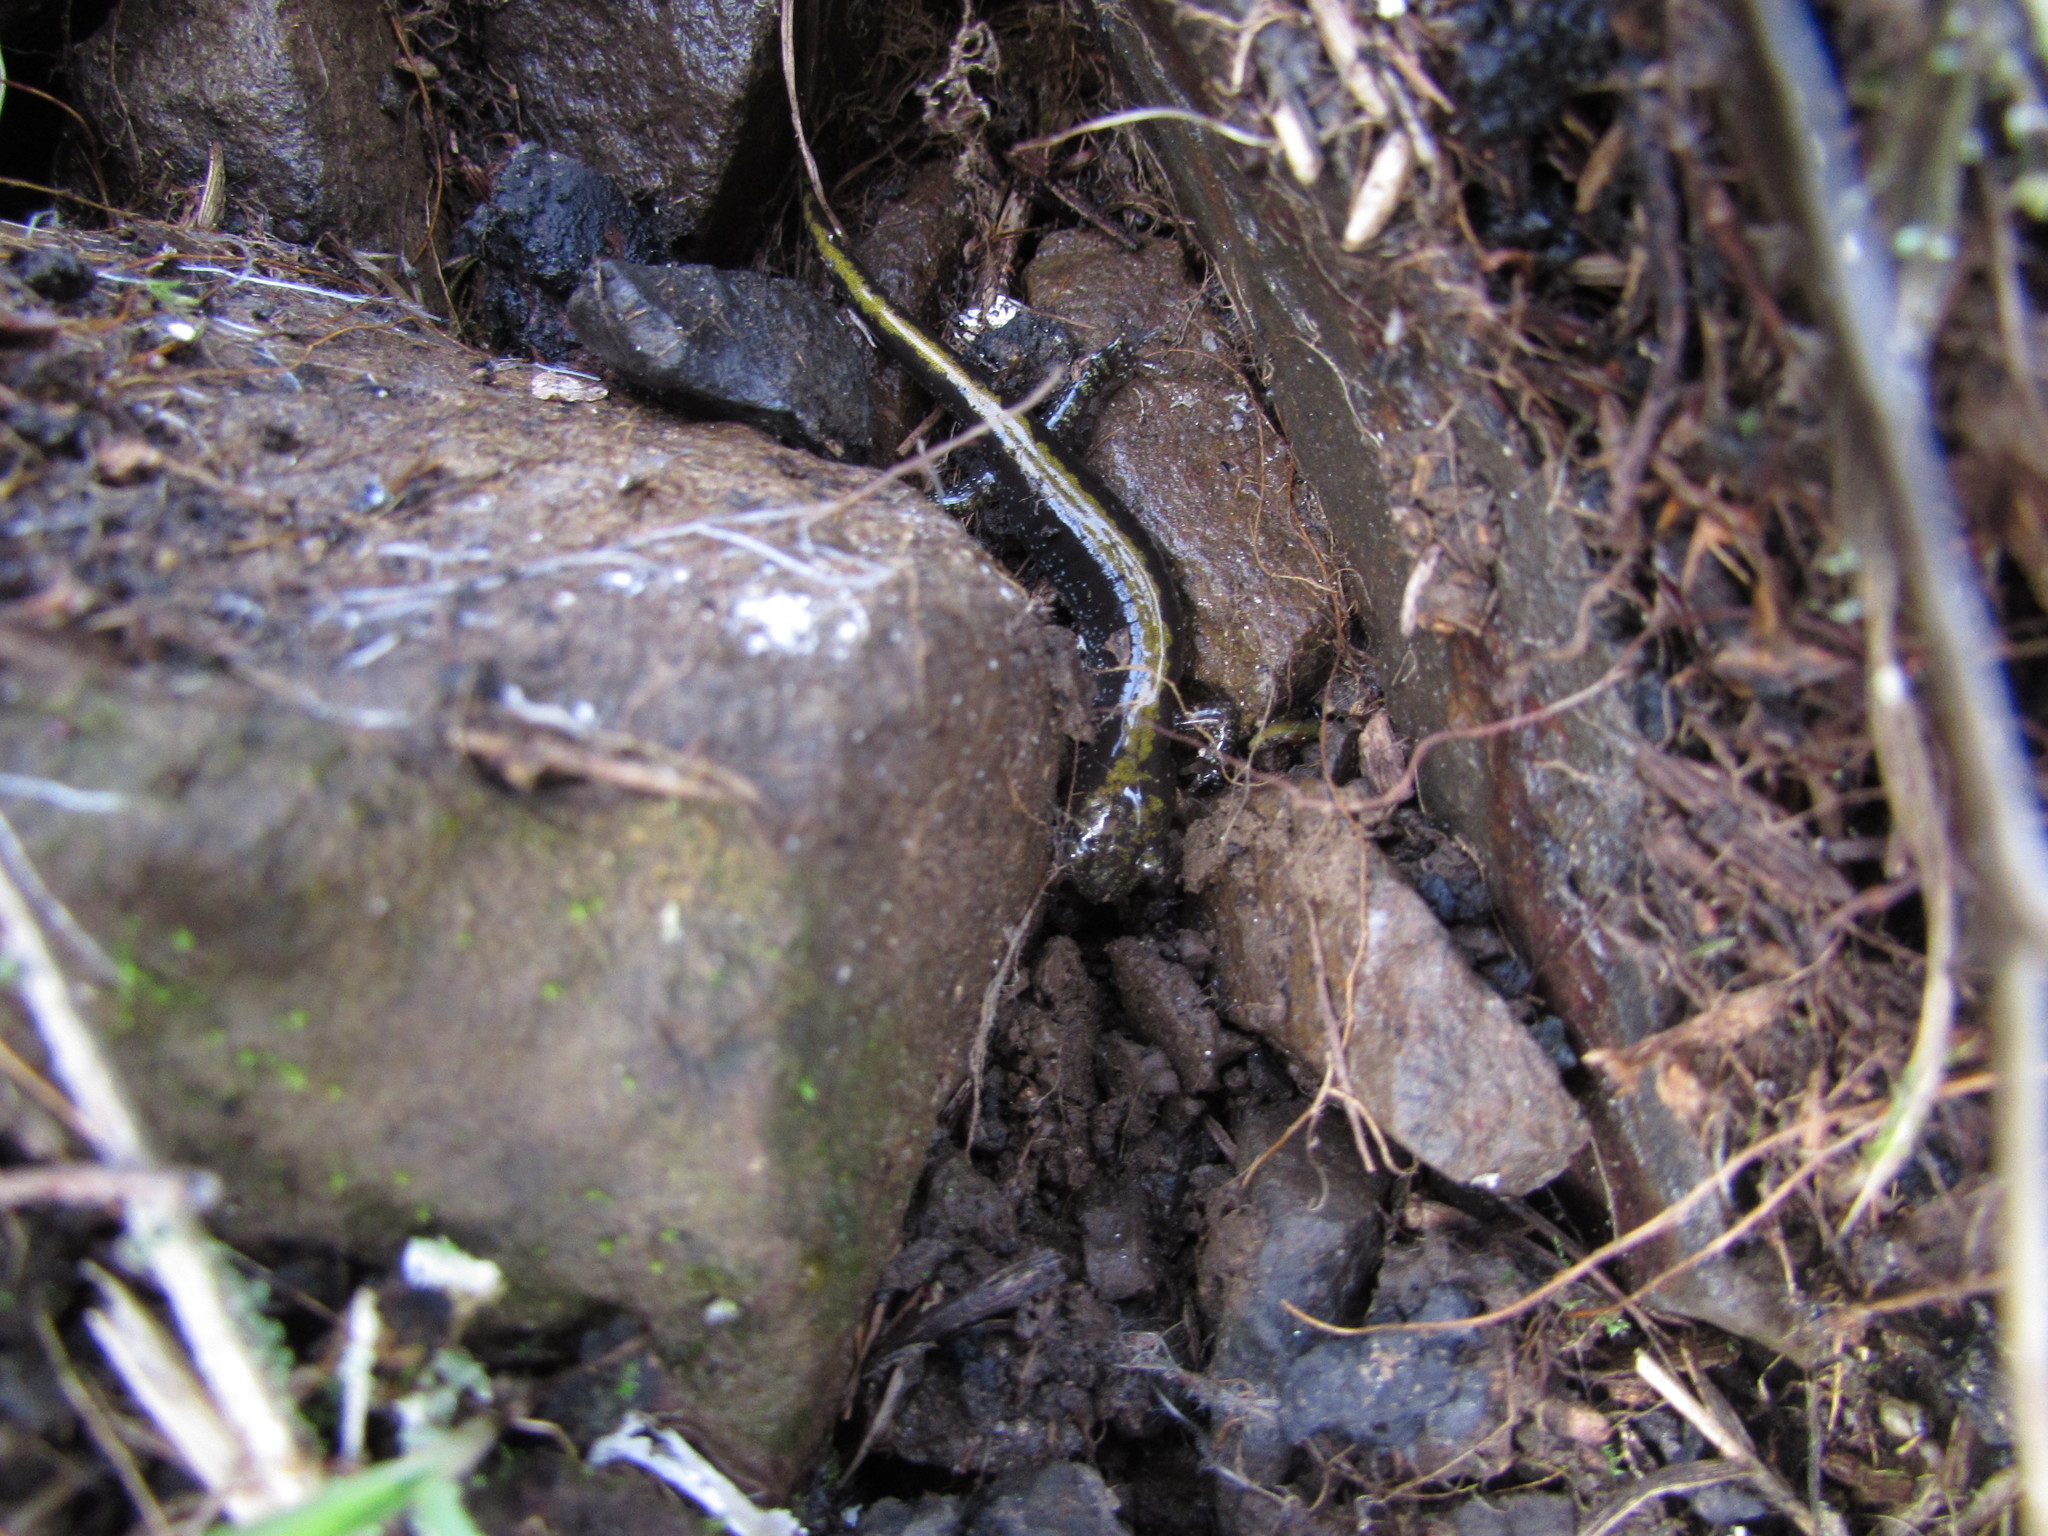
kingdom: Animalia
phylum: Chordata
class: Amphibia
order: Caudata
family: Ambystomatidae
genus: Ambystoma
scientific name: Ambystoma macrodactylum
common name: Long-toed salamander
